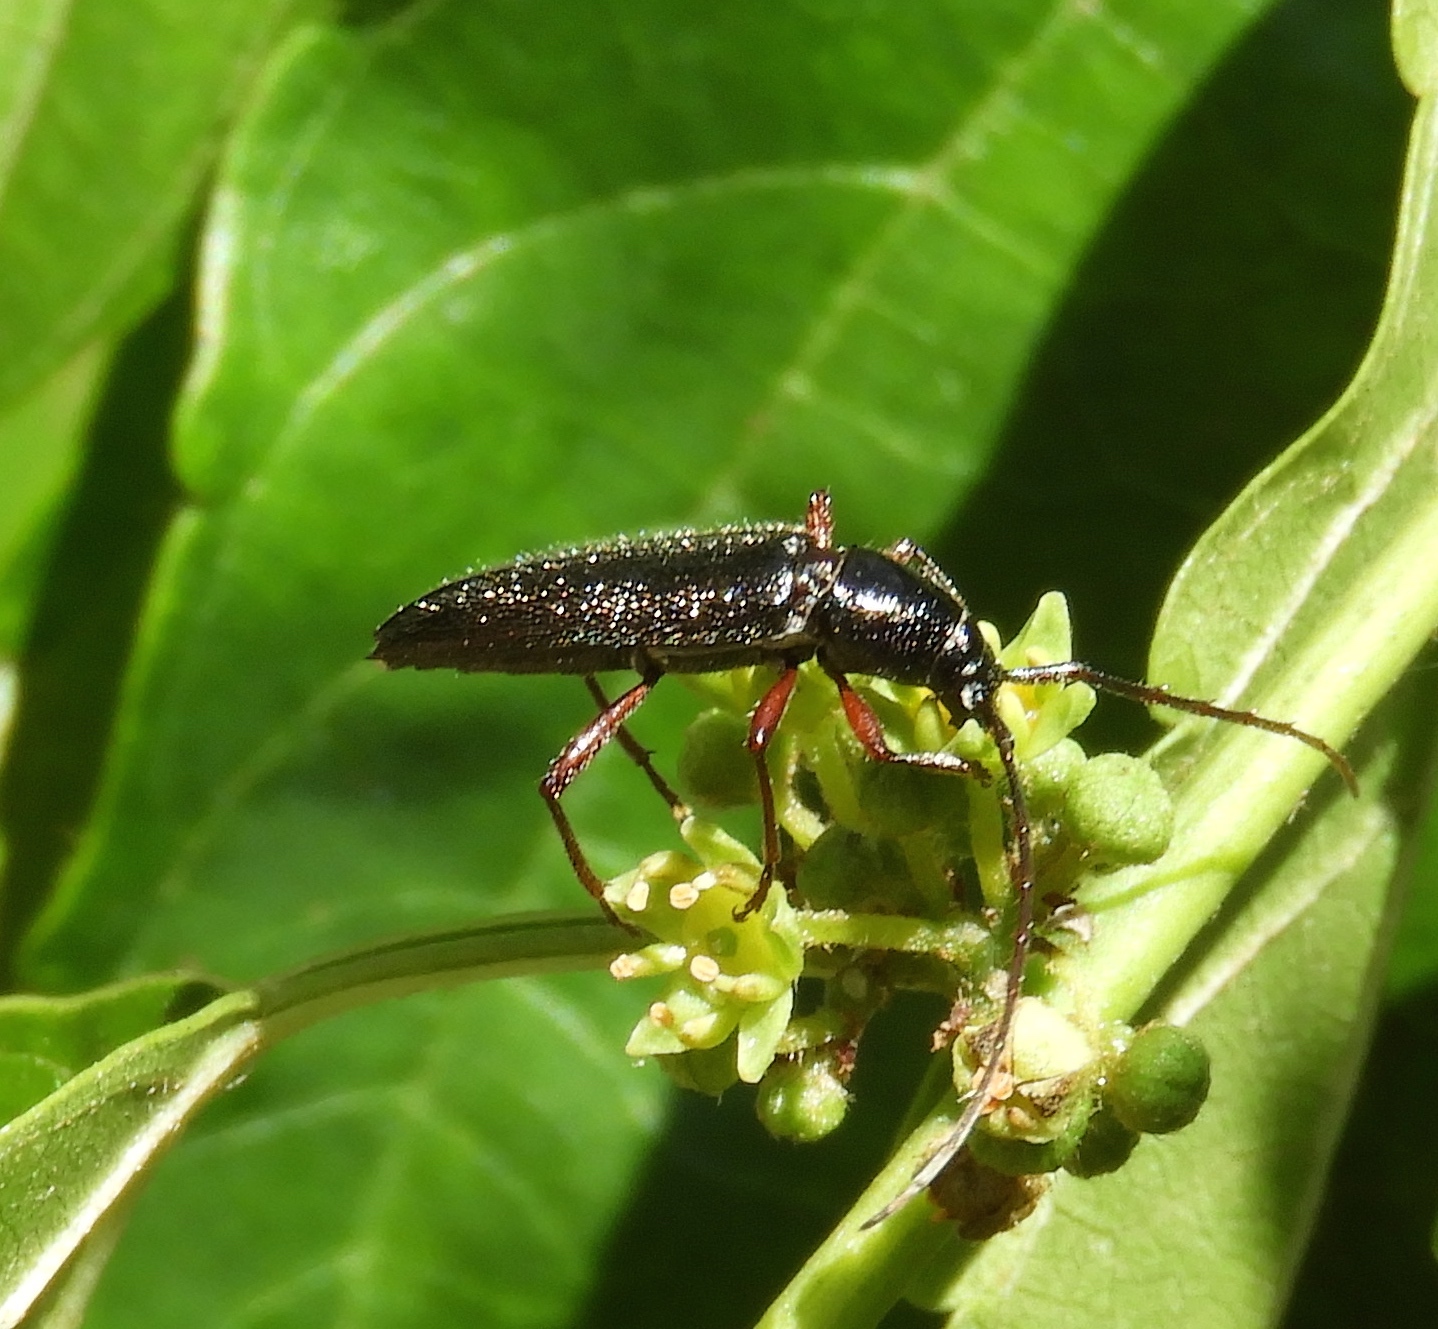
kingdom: Animalia
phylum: Arthropoda
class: Insecta
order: Coleoptera
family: Cerambycidae
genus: Stenosphenus
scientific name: Stenosphenus
